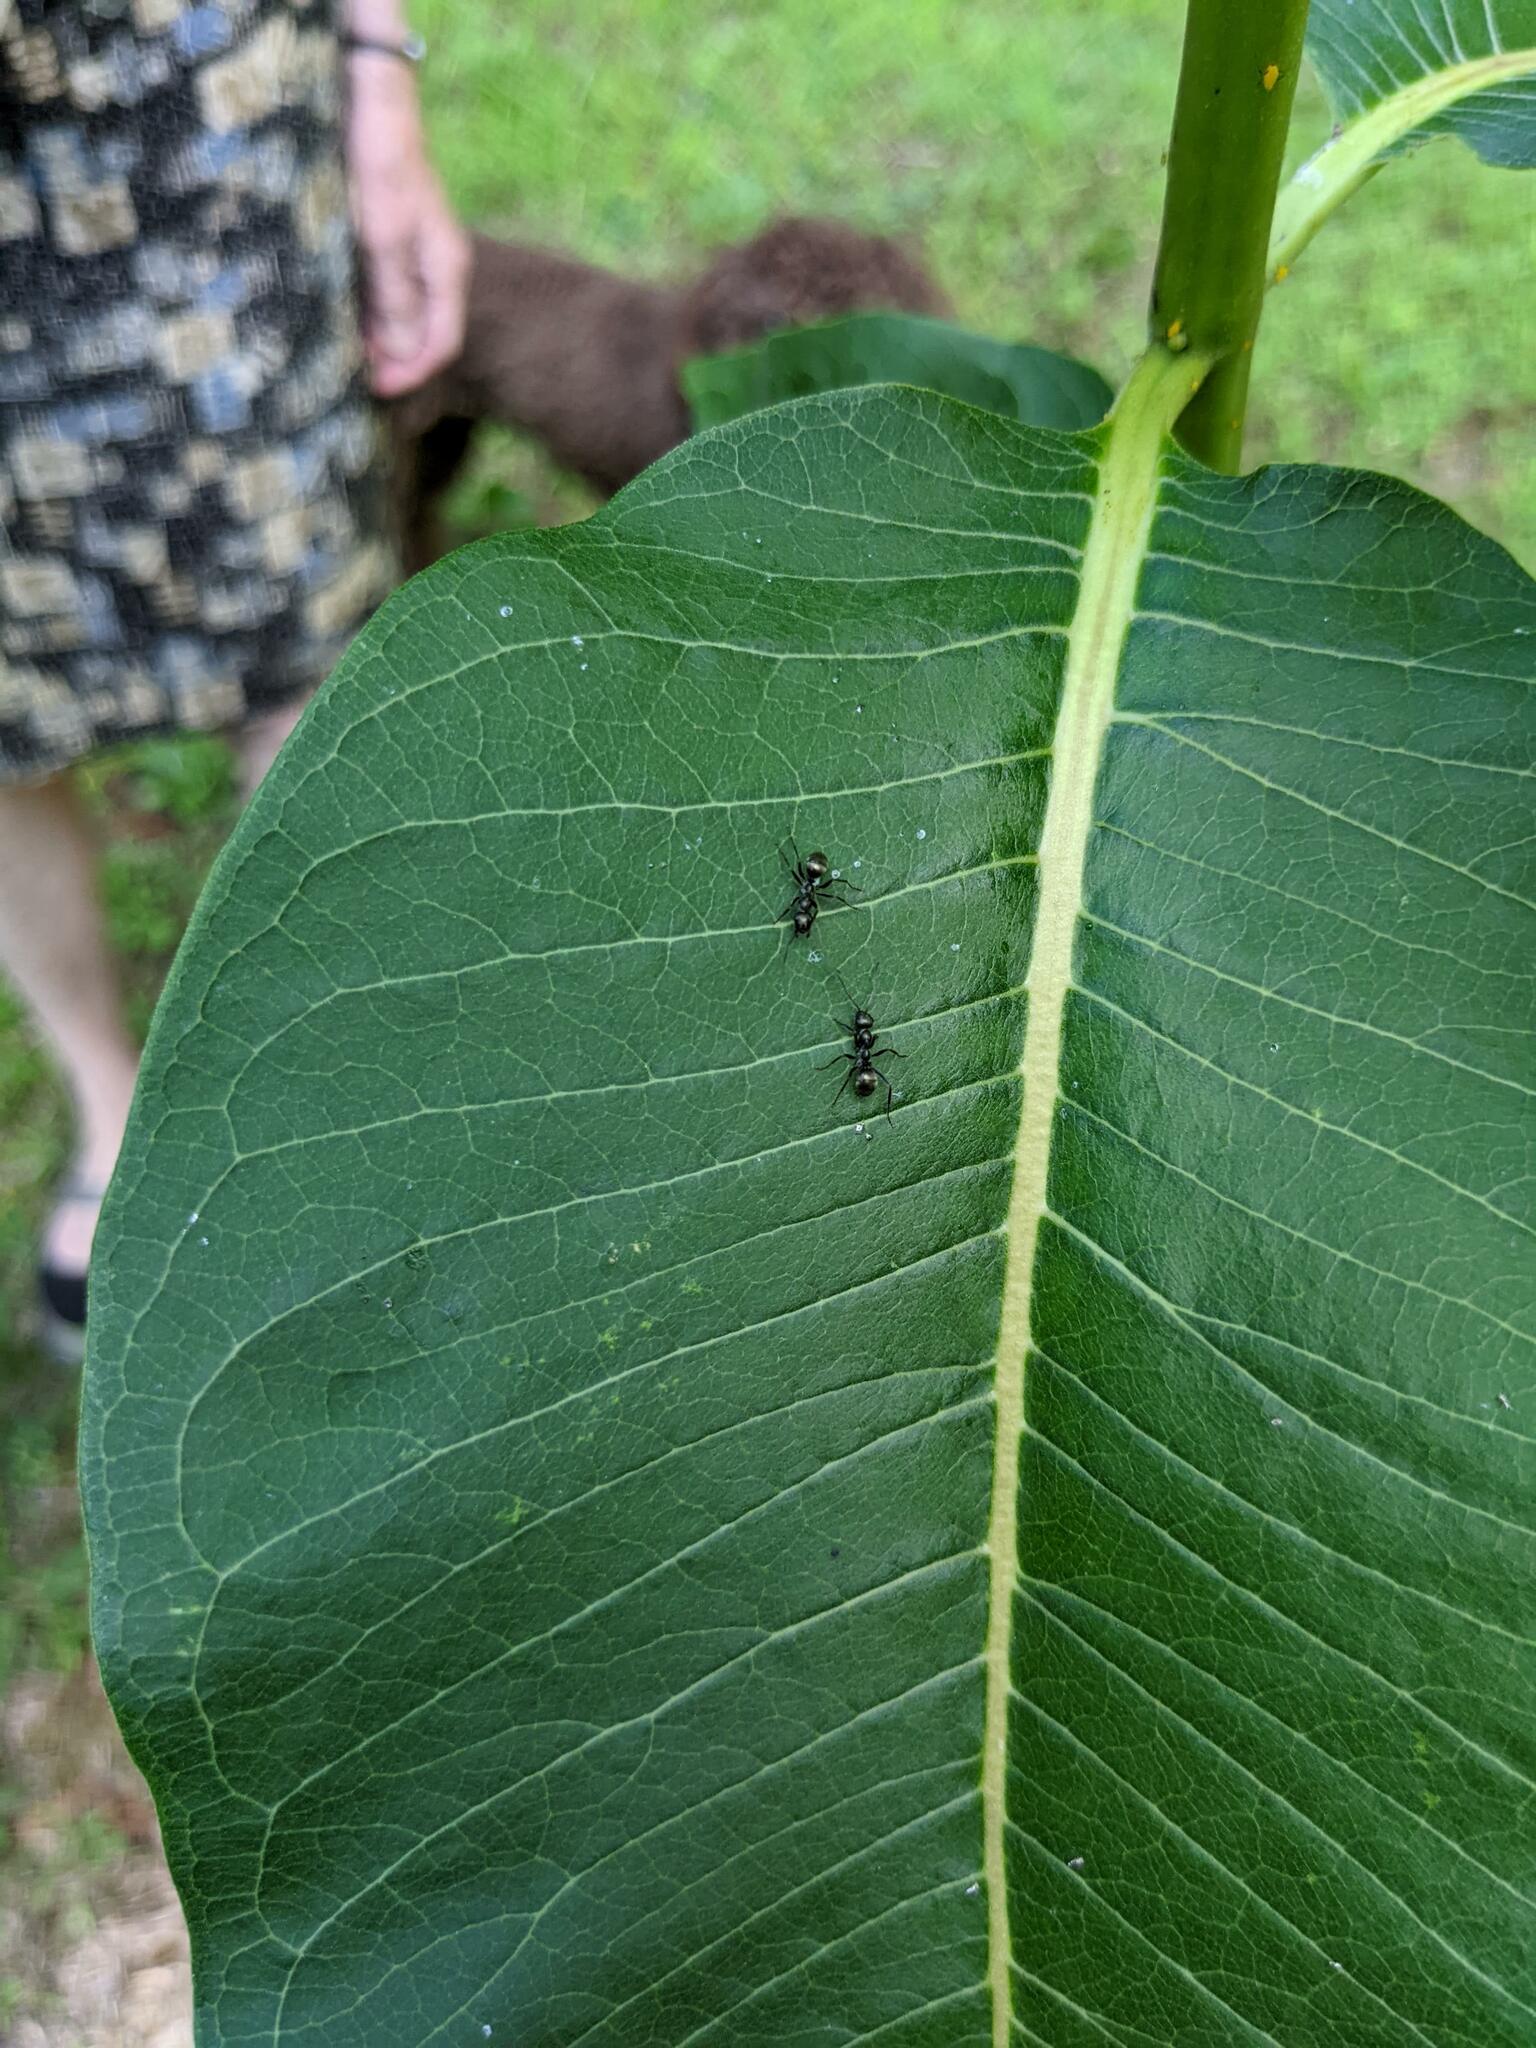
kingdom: Animalia
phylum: Arthropoda
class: Insecta
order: Hymenoptera
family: Formicidae
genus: Formica
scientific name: Formica
